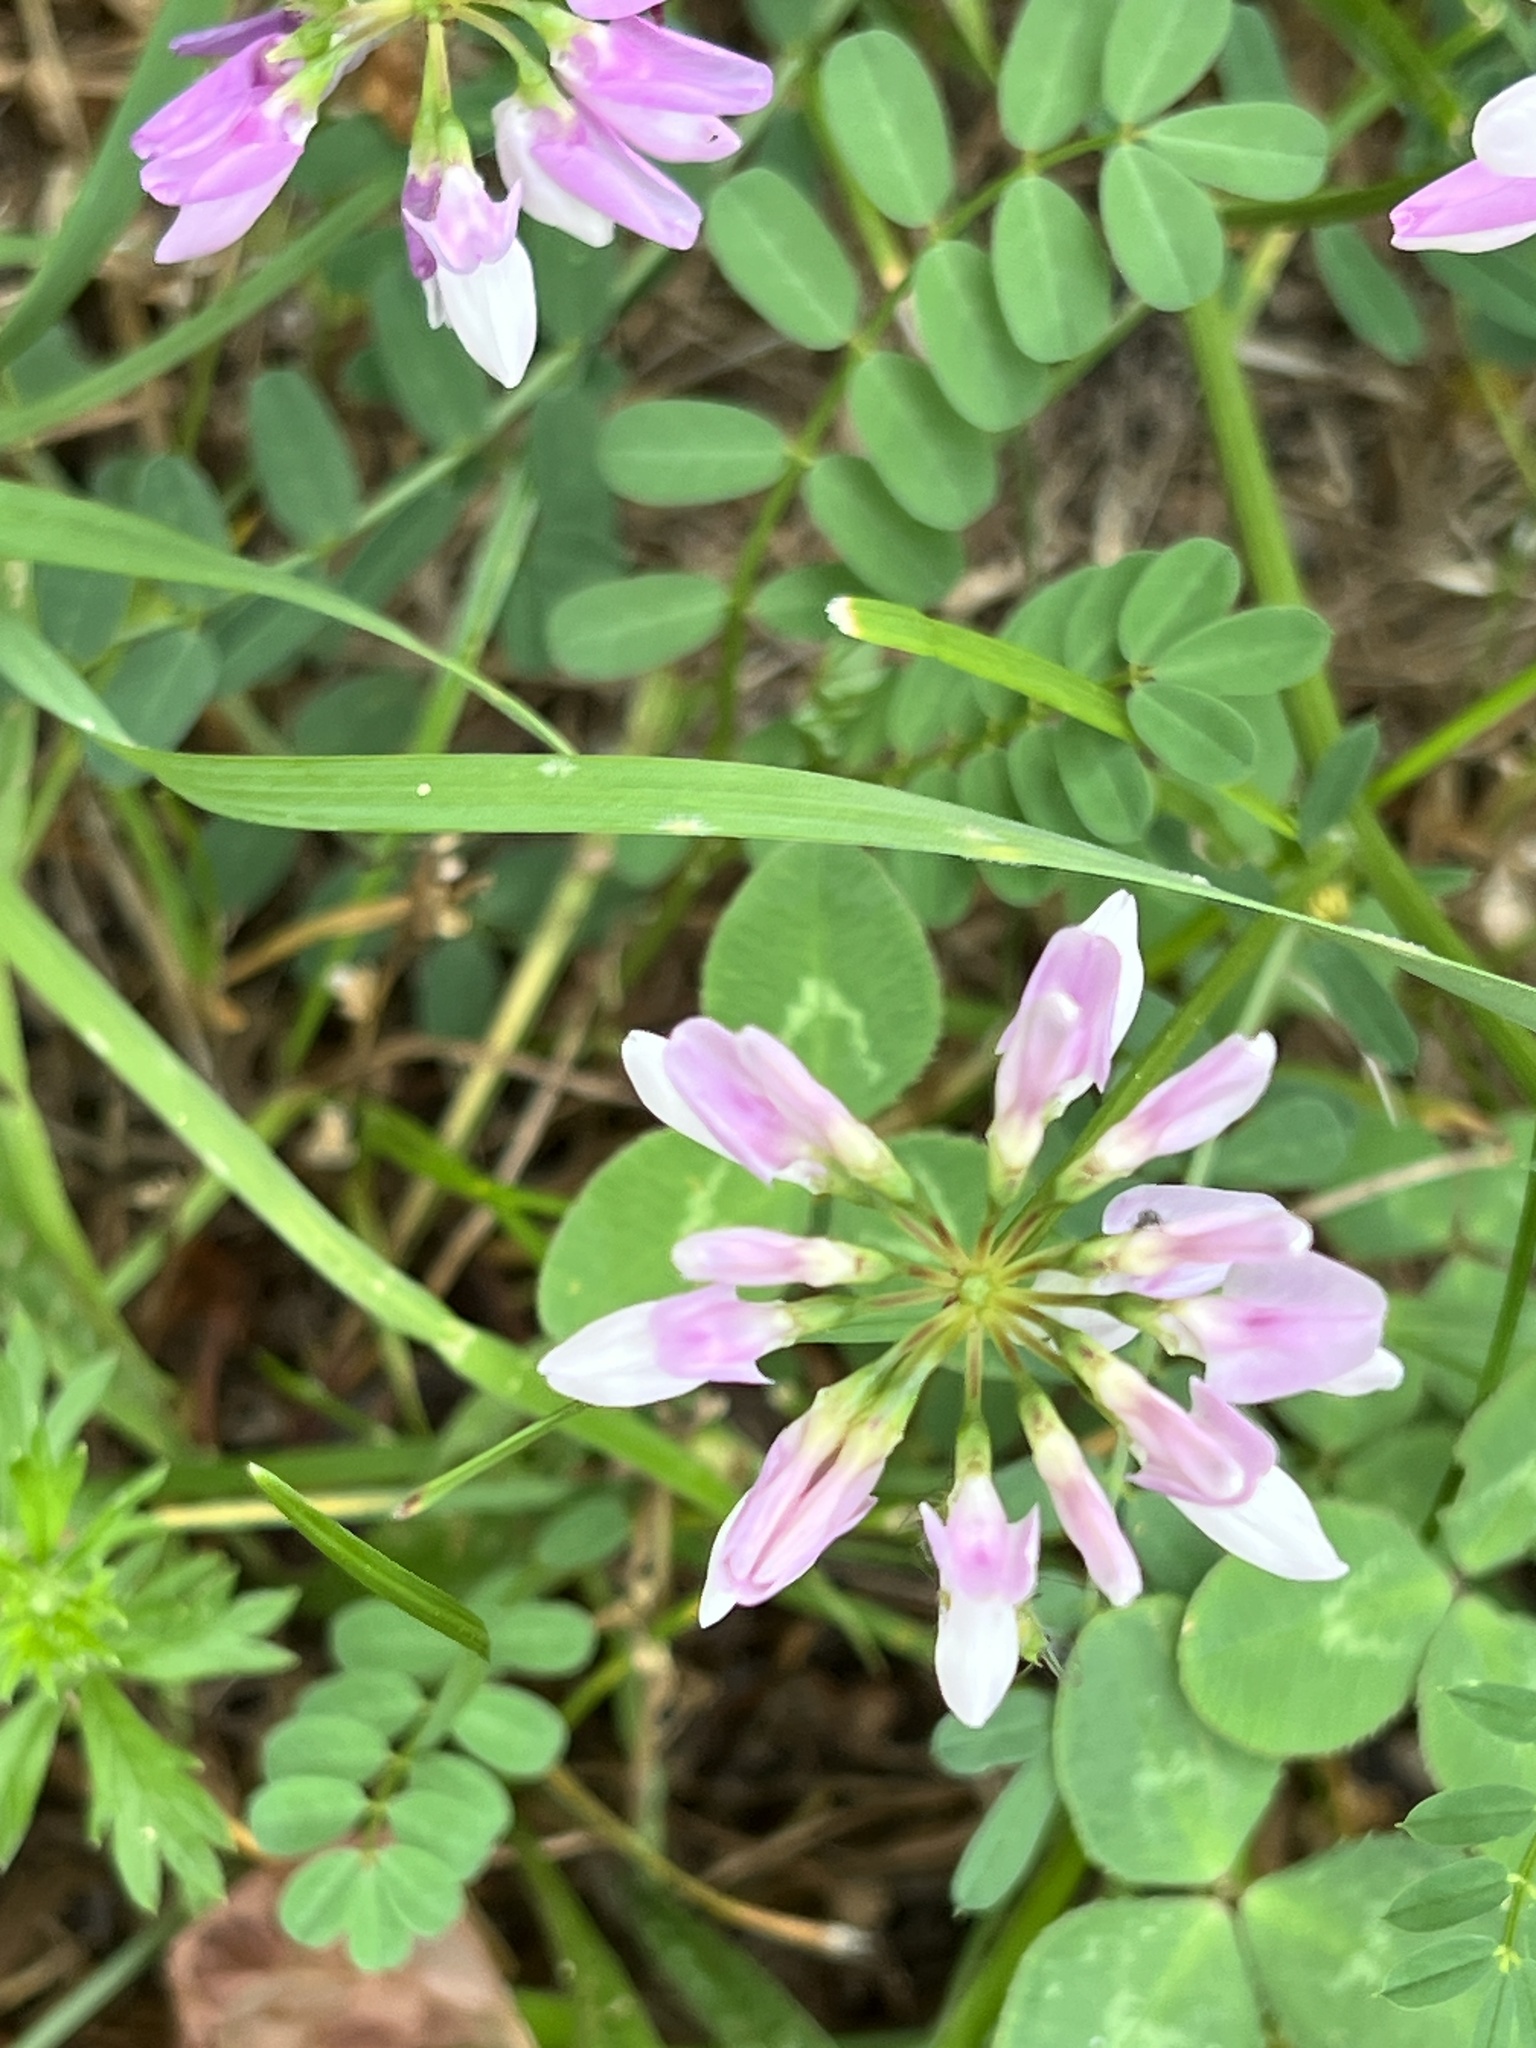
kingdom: Plantae
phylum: Tracheophyta
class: Magnoliopsida
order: Fabales
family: Fabaceae
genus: Coronilla
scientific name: Coronilla varia
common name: Crownvetch
